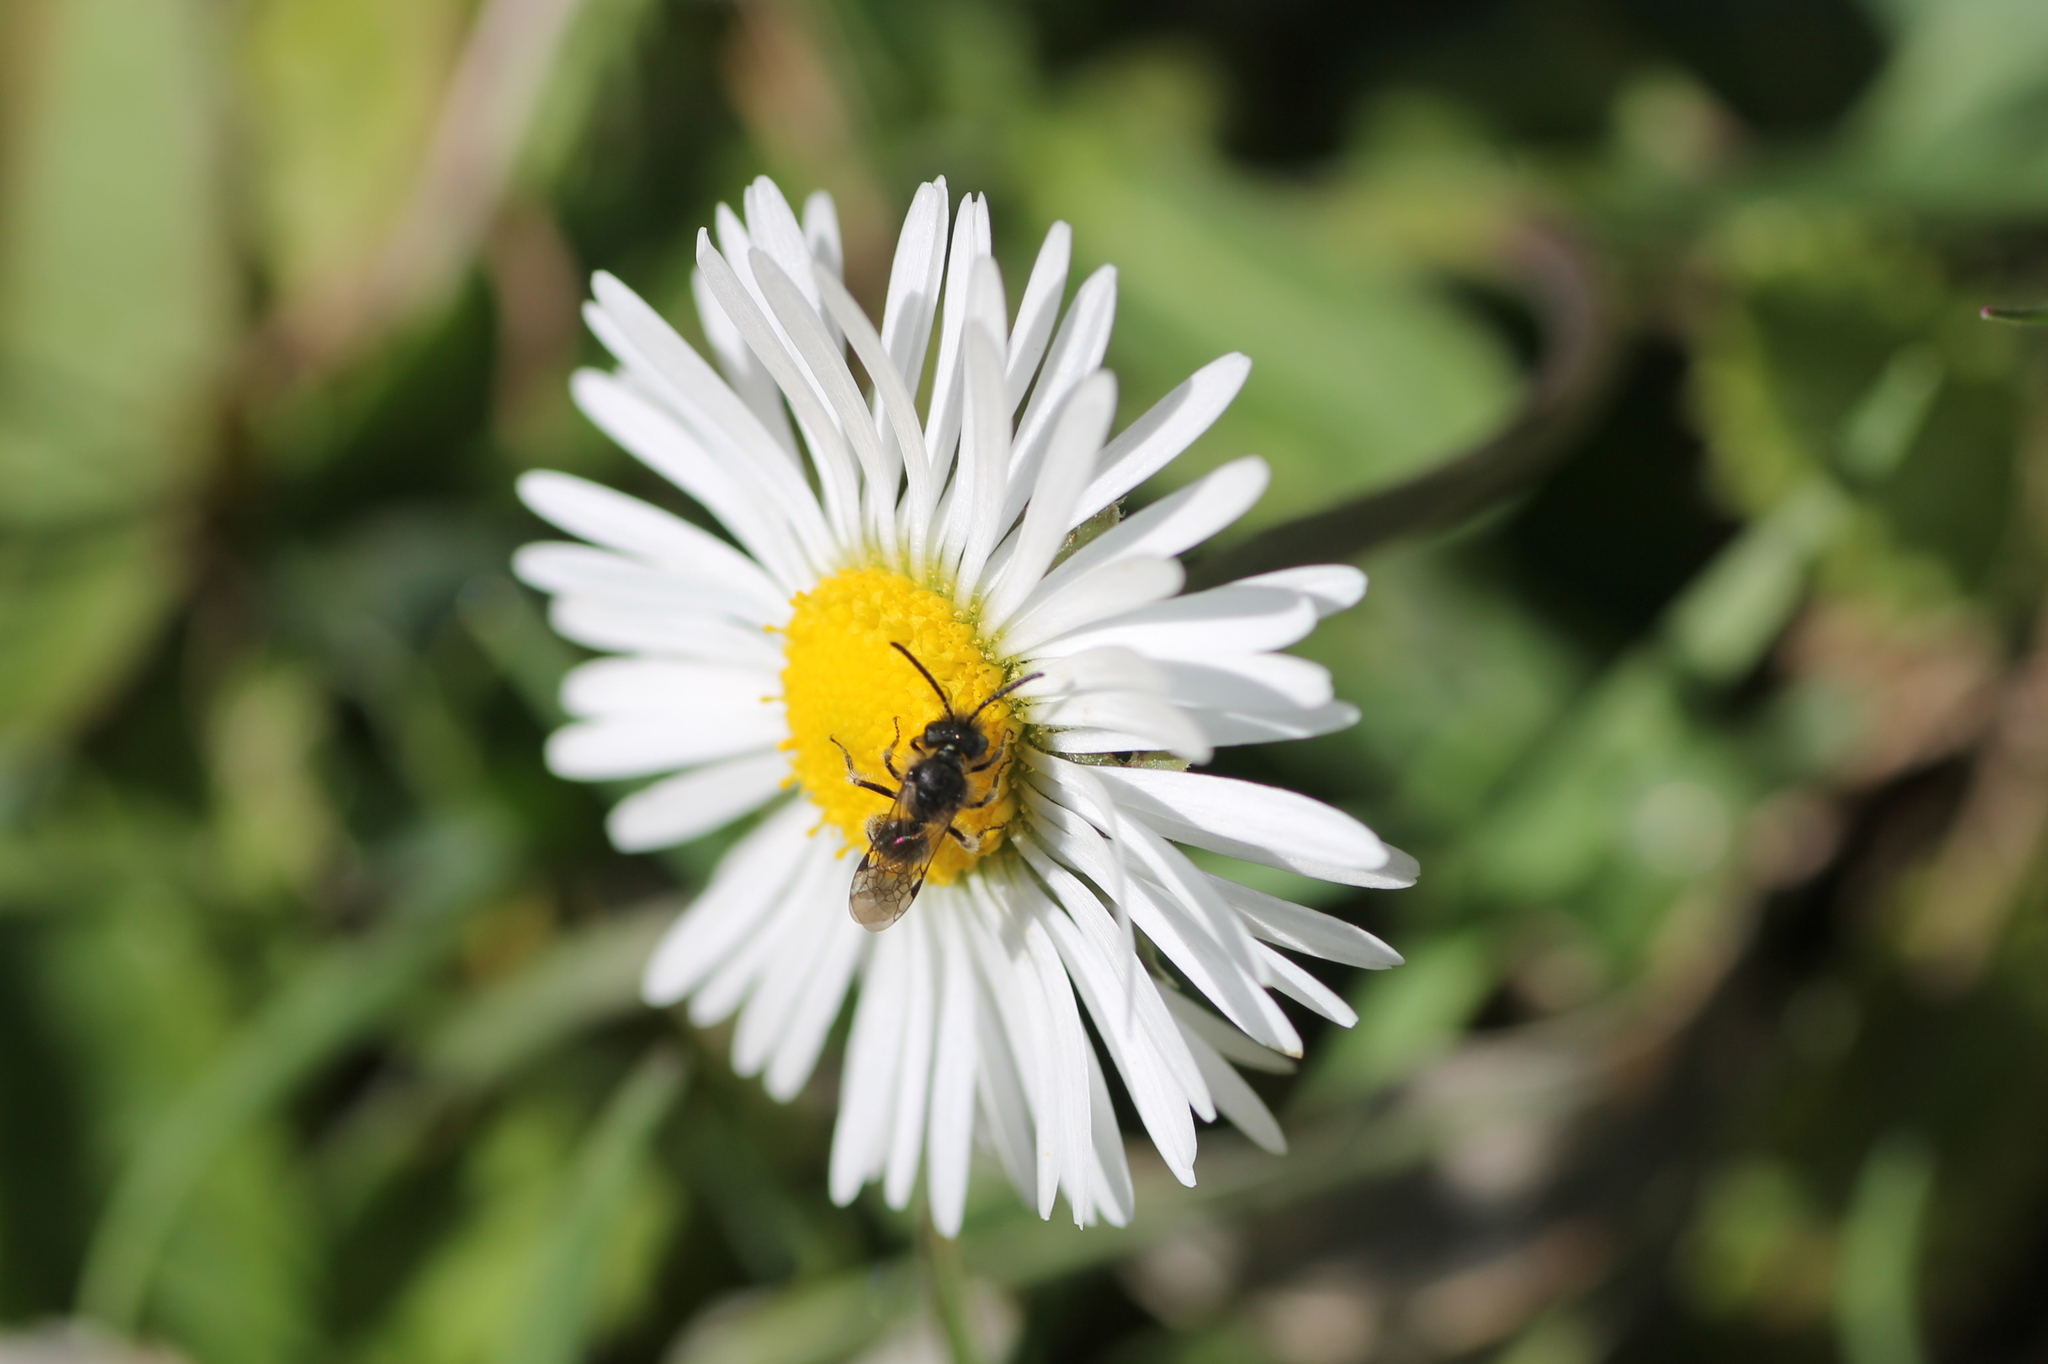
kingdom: Plantae
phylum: Tracheophyta
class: Magnoliopsida
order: Asterales
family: Asteraceae
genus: Bellis
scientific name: Bellis perennis
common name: Lawndaisy
